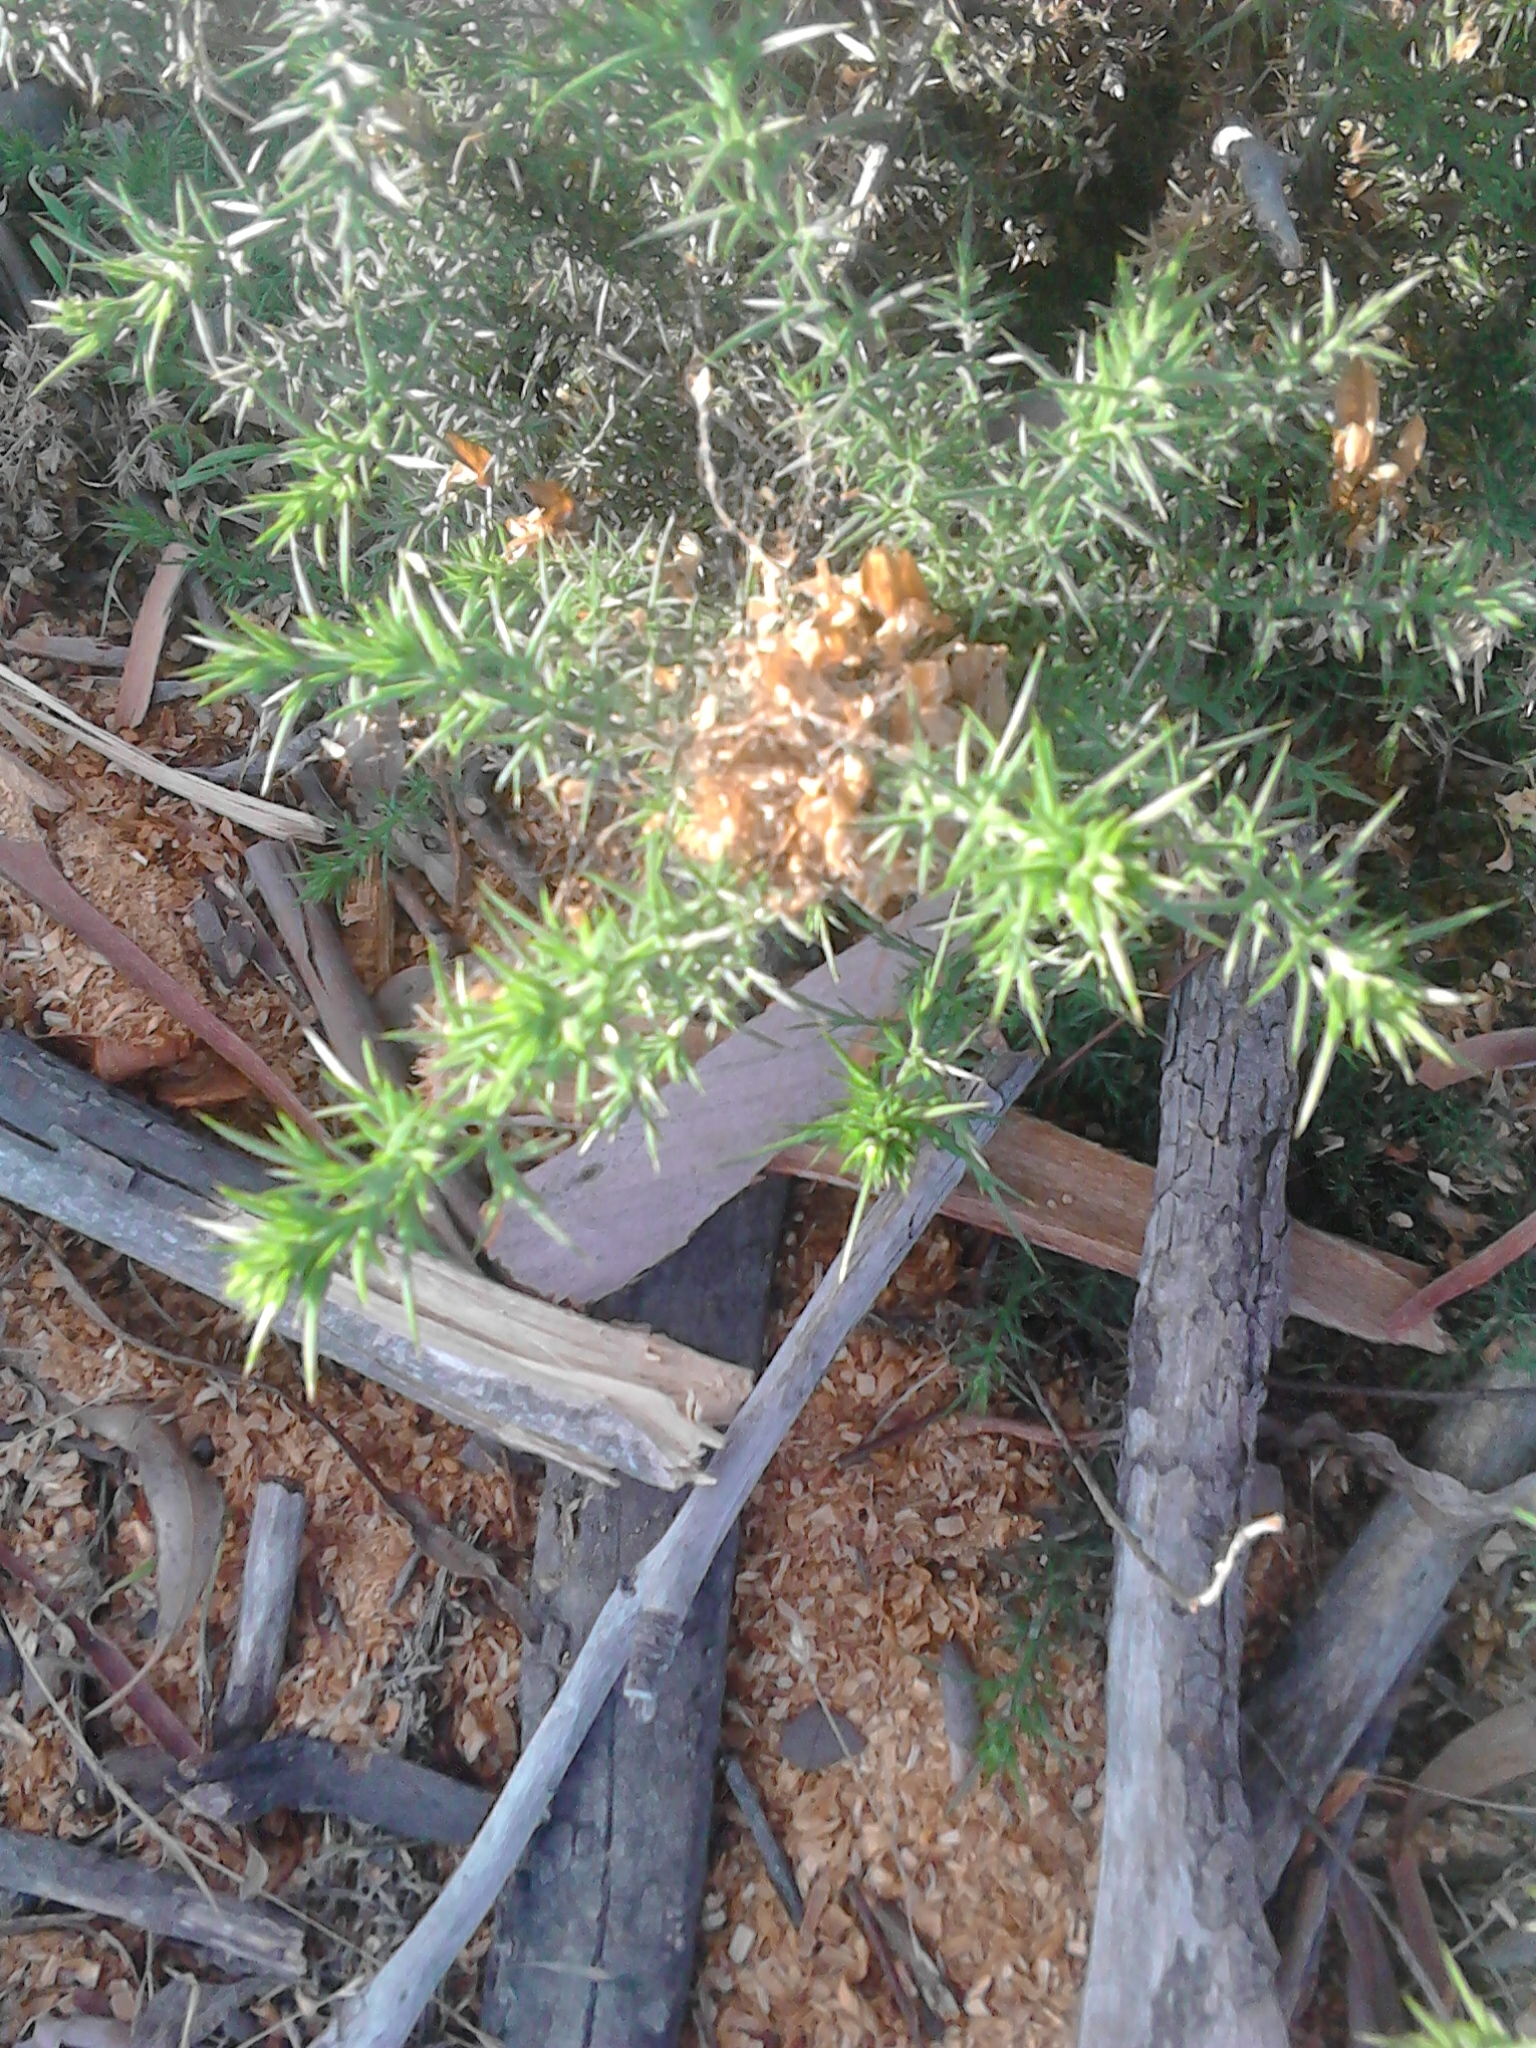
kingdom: Plantae
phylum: Tracheophyta
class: Magnoliopsida
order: Fabales
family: Fabaceae
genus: Ulex
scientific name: Ulex europaeus
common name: Common gorse
